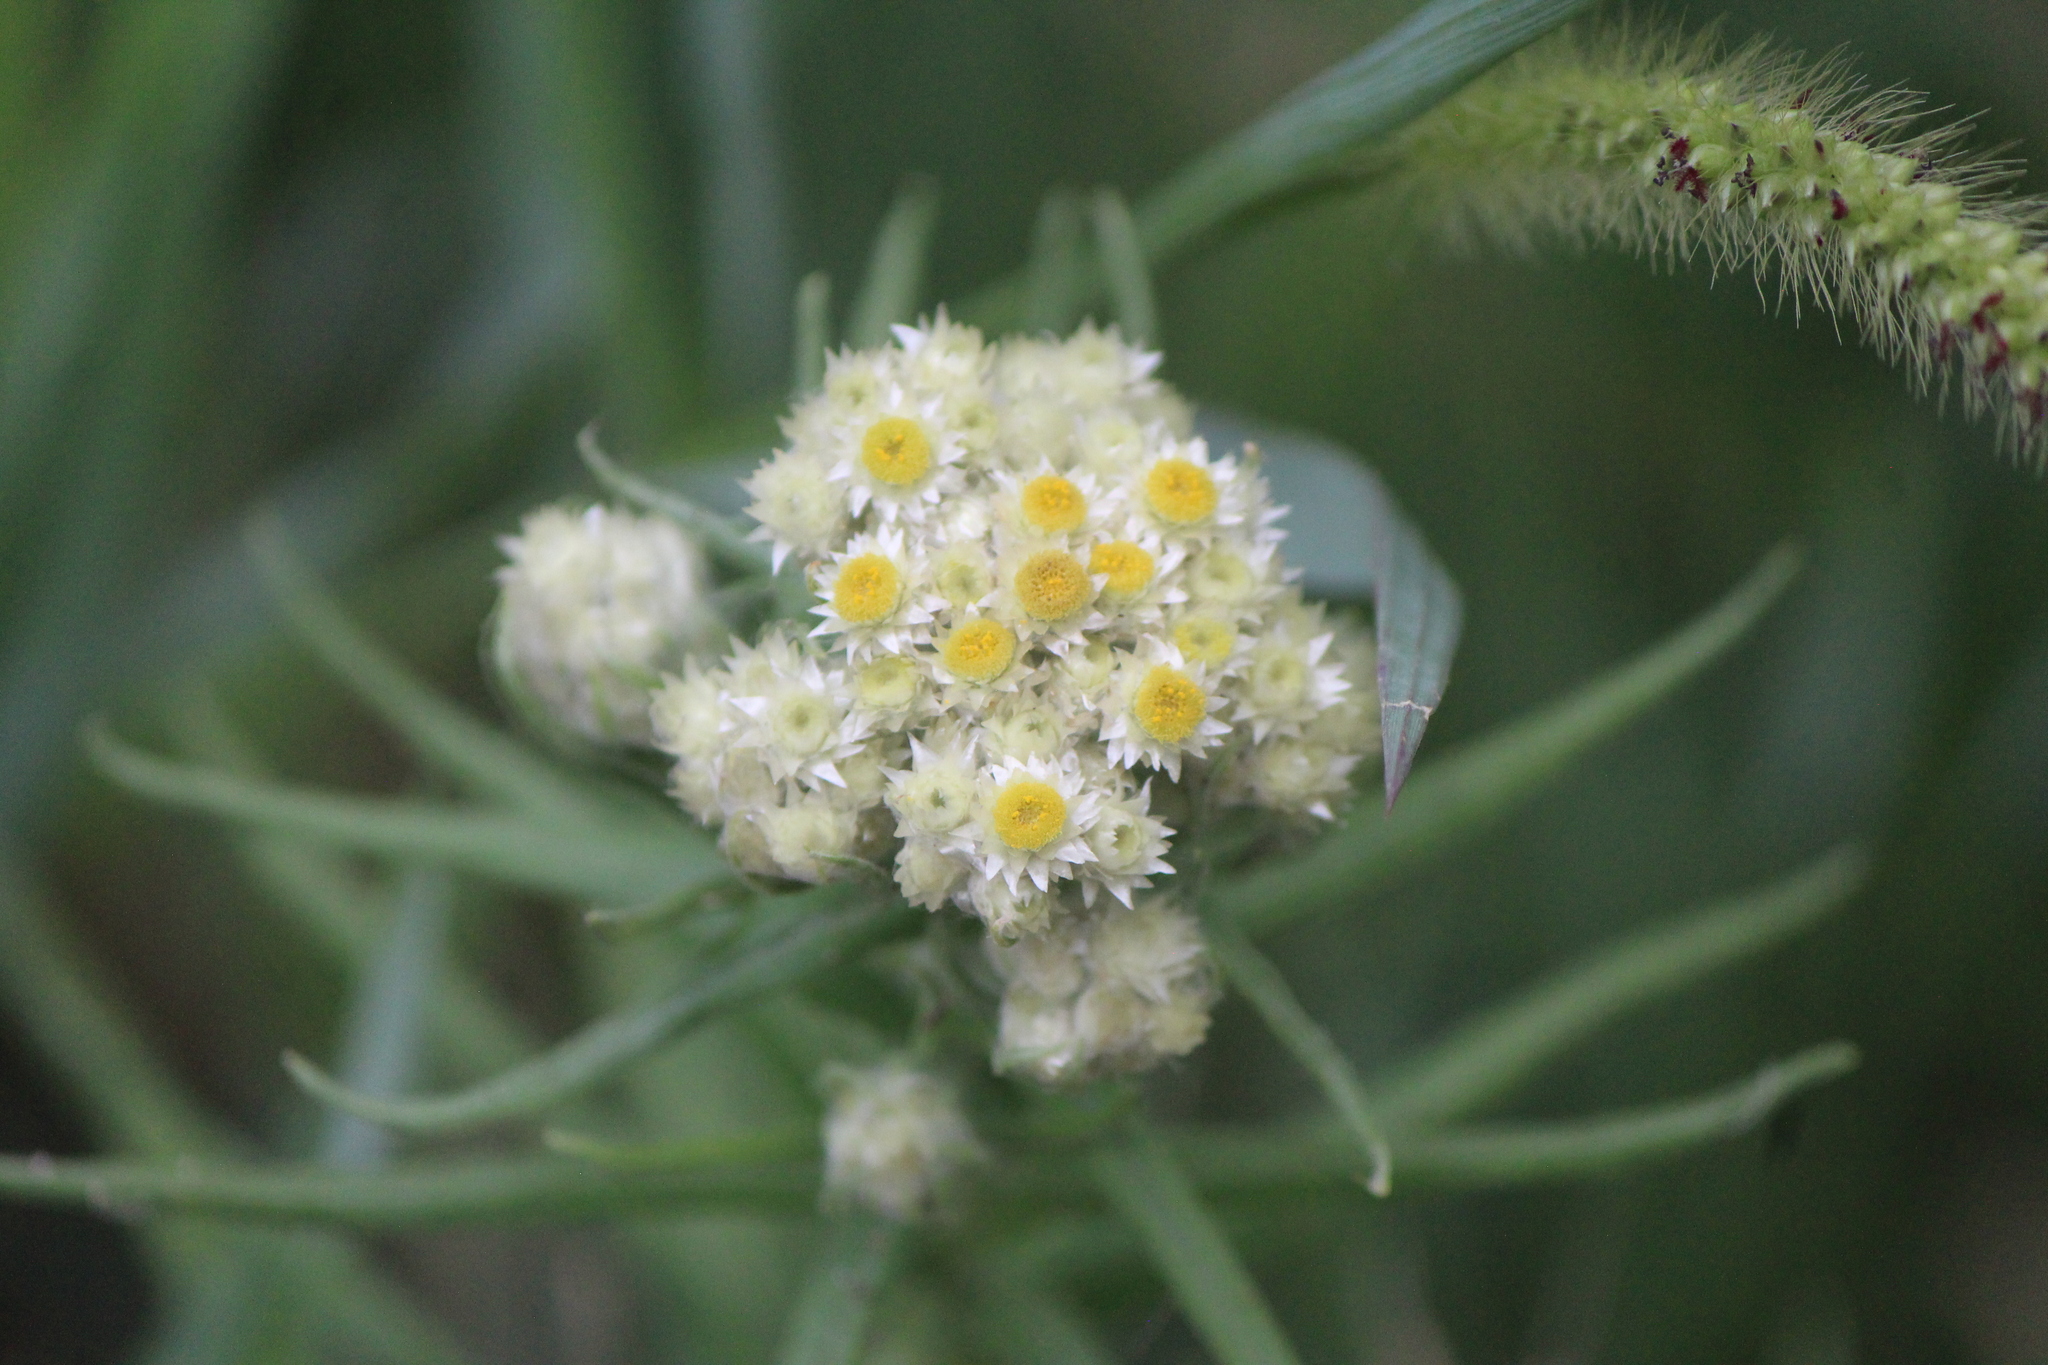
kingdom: Plantae
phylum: Tracheophyta
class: Magnoliopsida
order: Asterales
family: Asteraceae
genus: Pseudognaphalium
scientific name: Pseudognaphalium viscosum
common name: Sticky rabbit-tobacco
